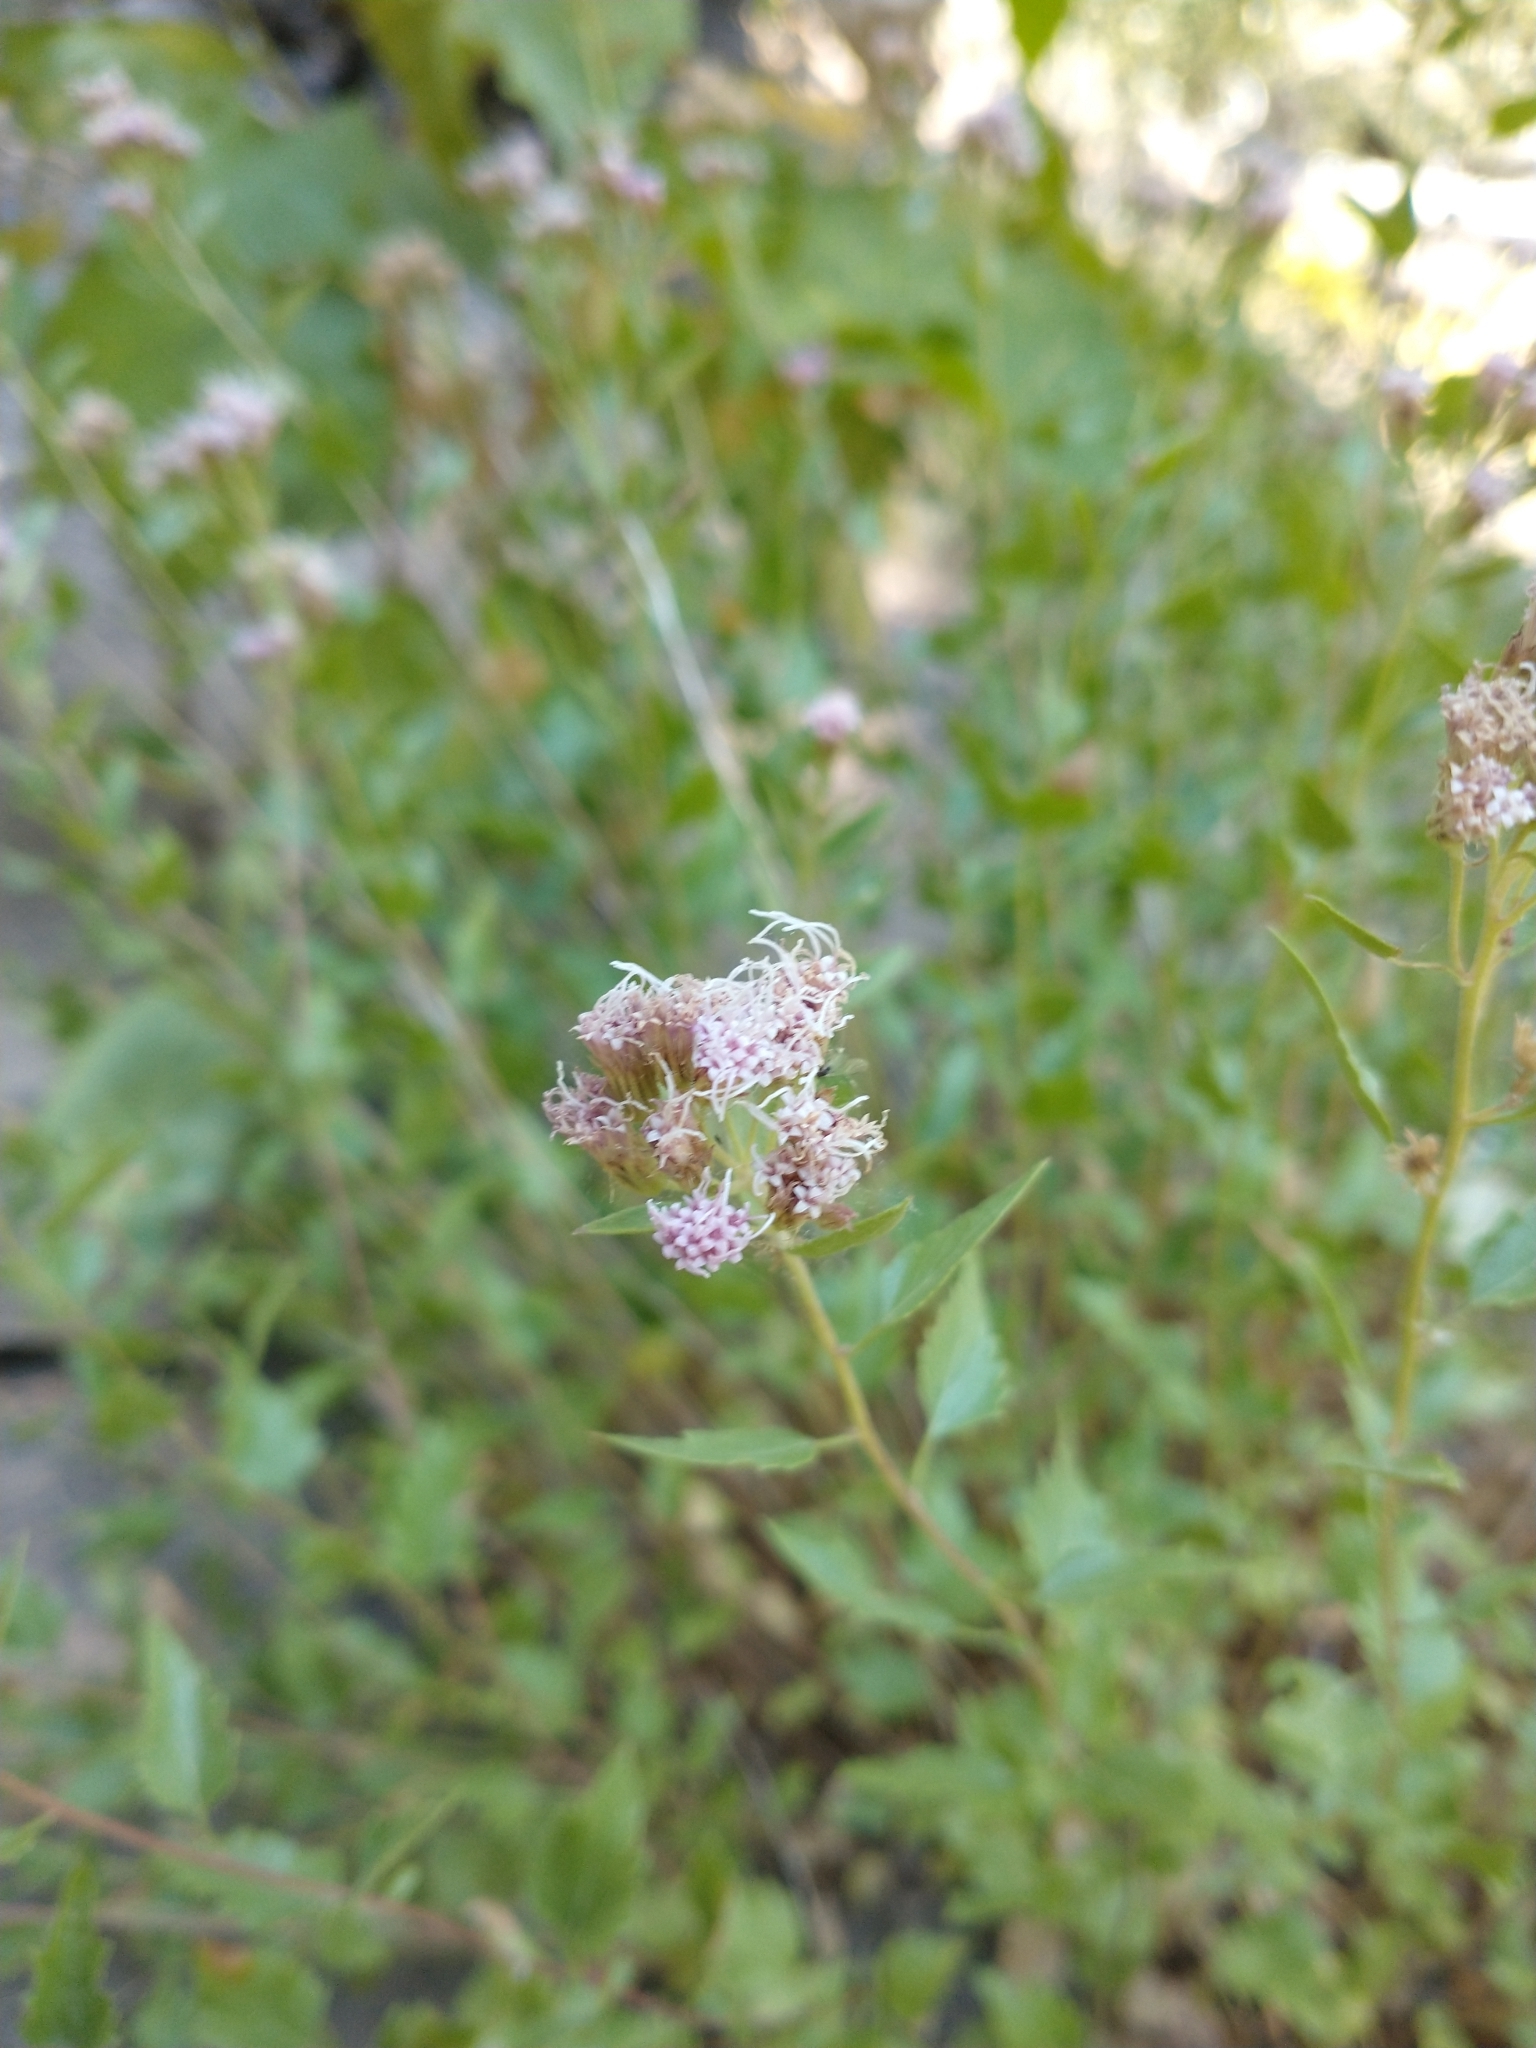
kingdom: Plantae
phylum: Tracheophyta
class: Magnoliopsida
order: Asterales
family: Asteraceae
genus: Ageratina
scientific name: Ageratina occidentalis
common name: Western snakeroot
